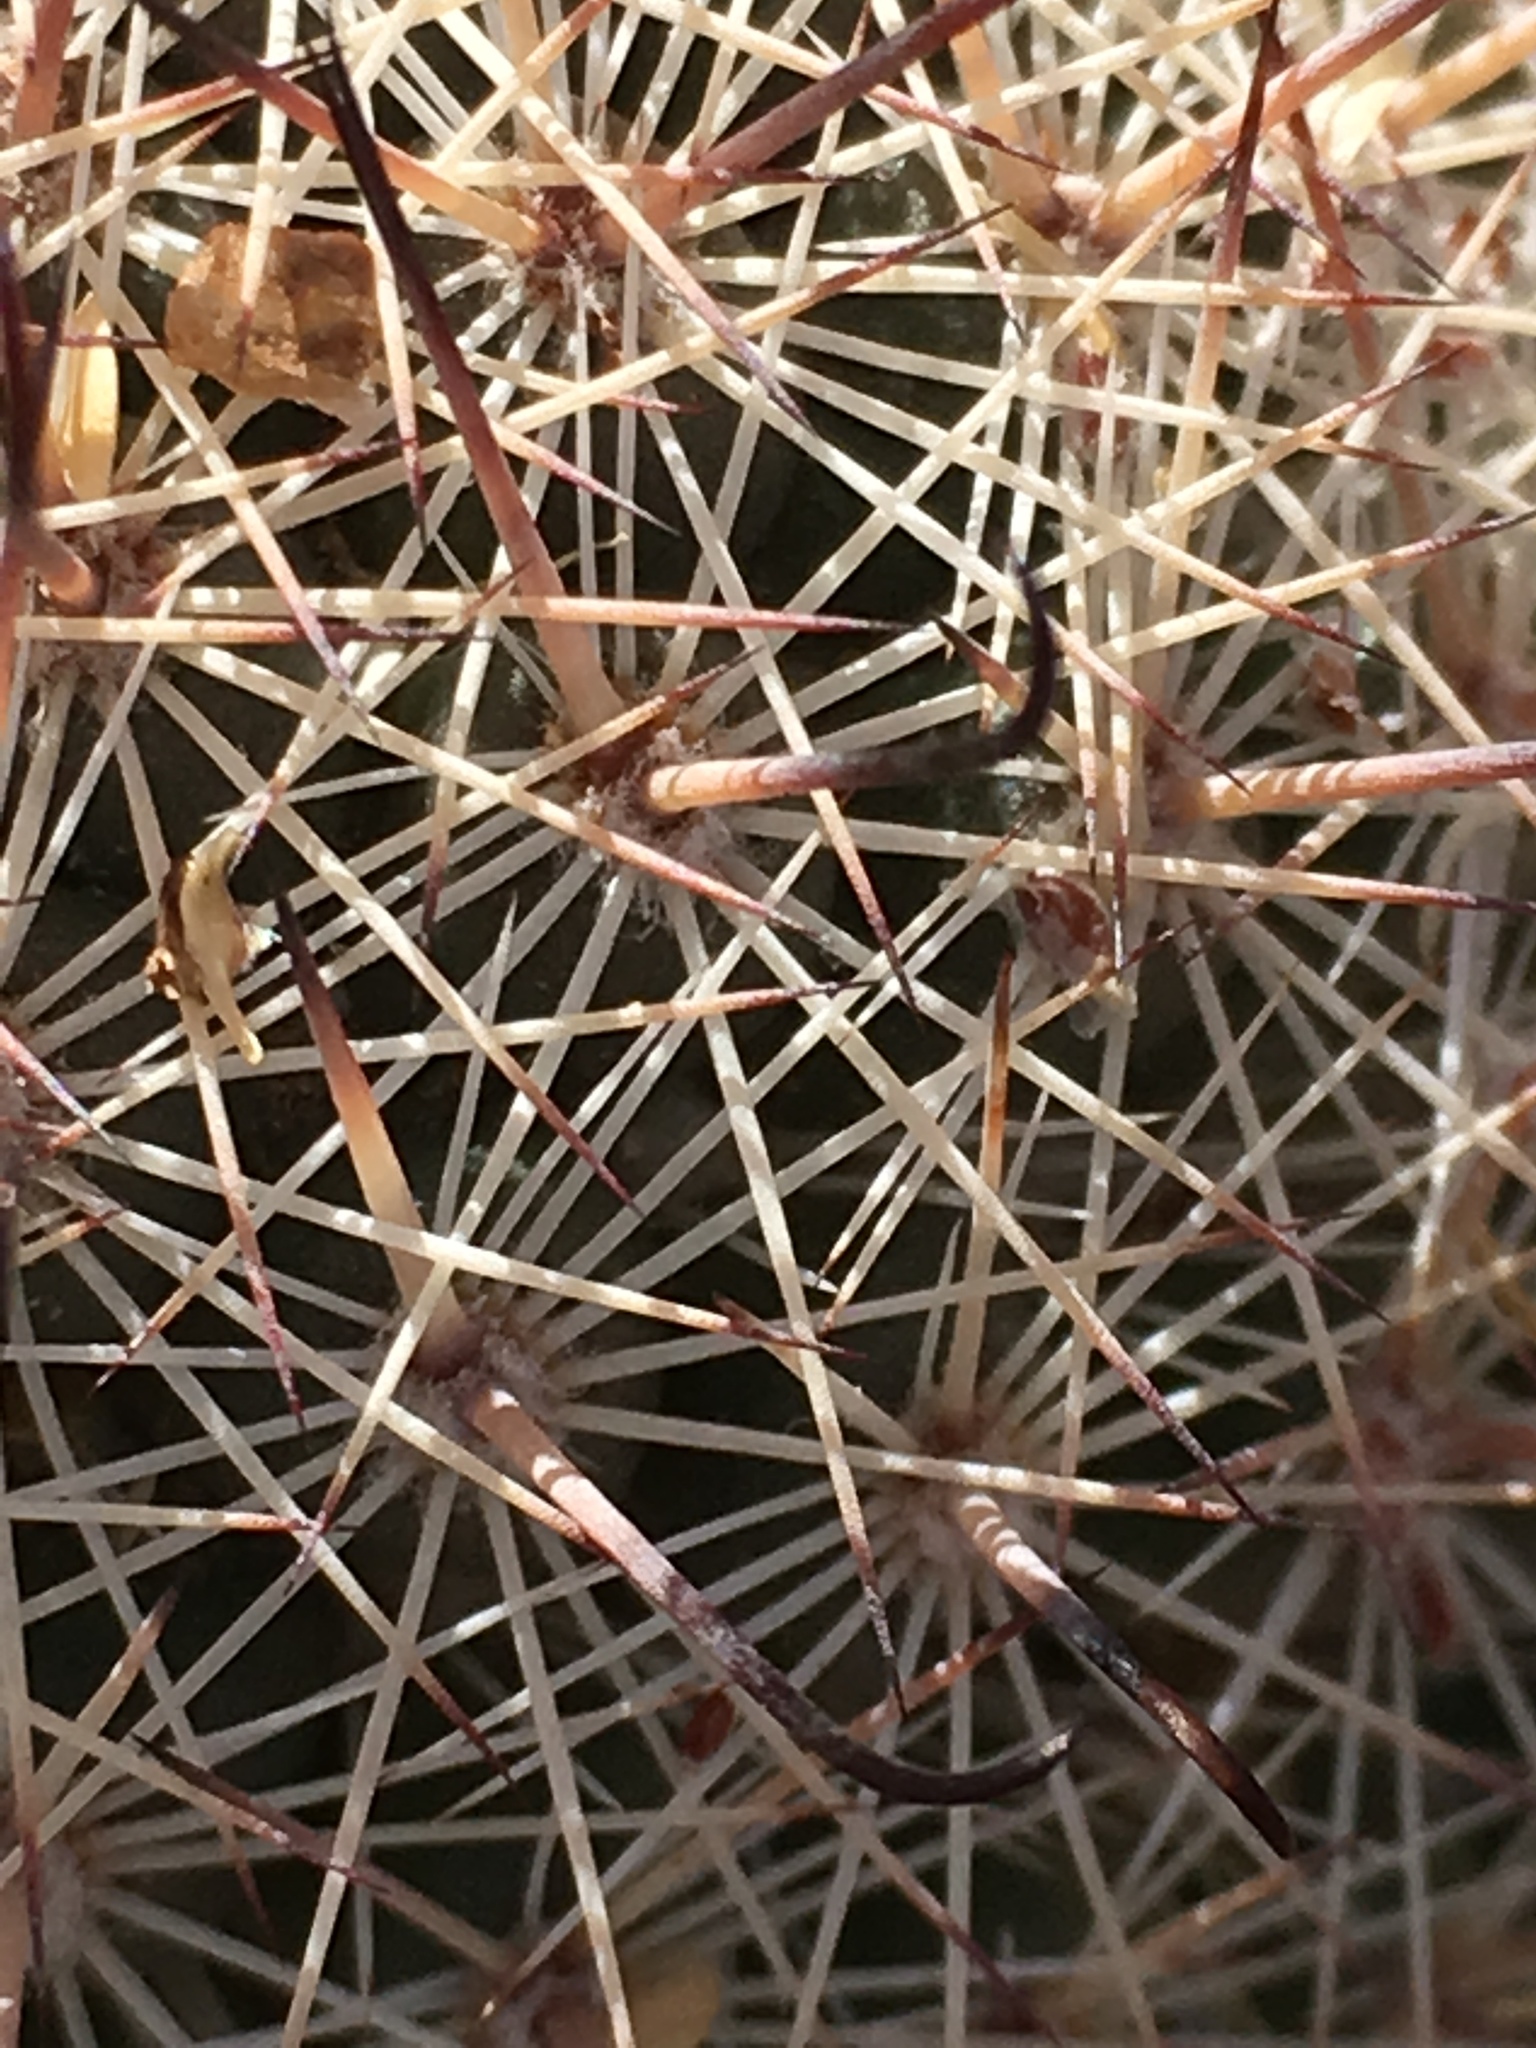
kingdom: Plantae
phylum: Tracheophyta
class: Magnoliopsida
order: Caryophyllales
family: Cactaceae
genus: Cochemiea
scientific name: Cochemiea dioica
